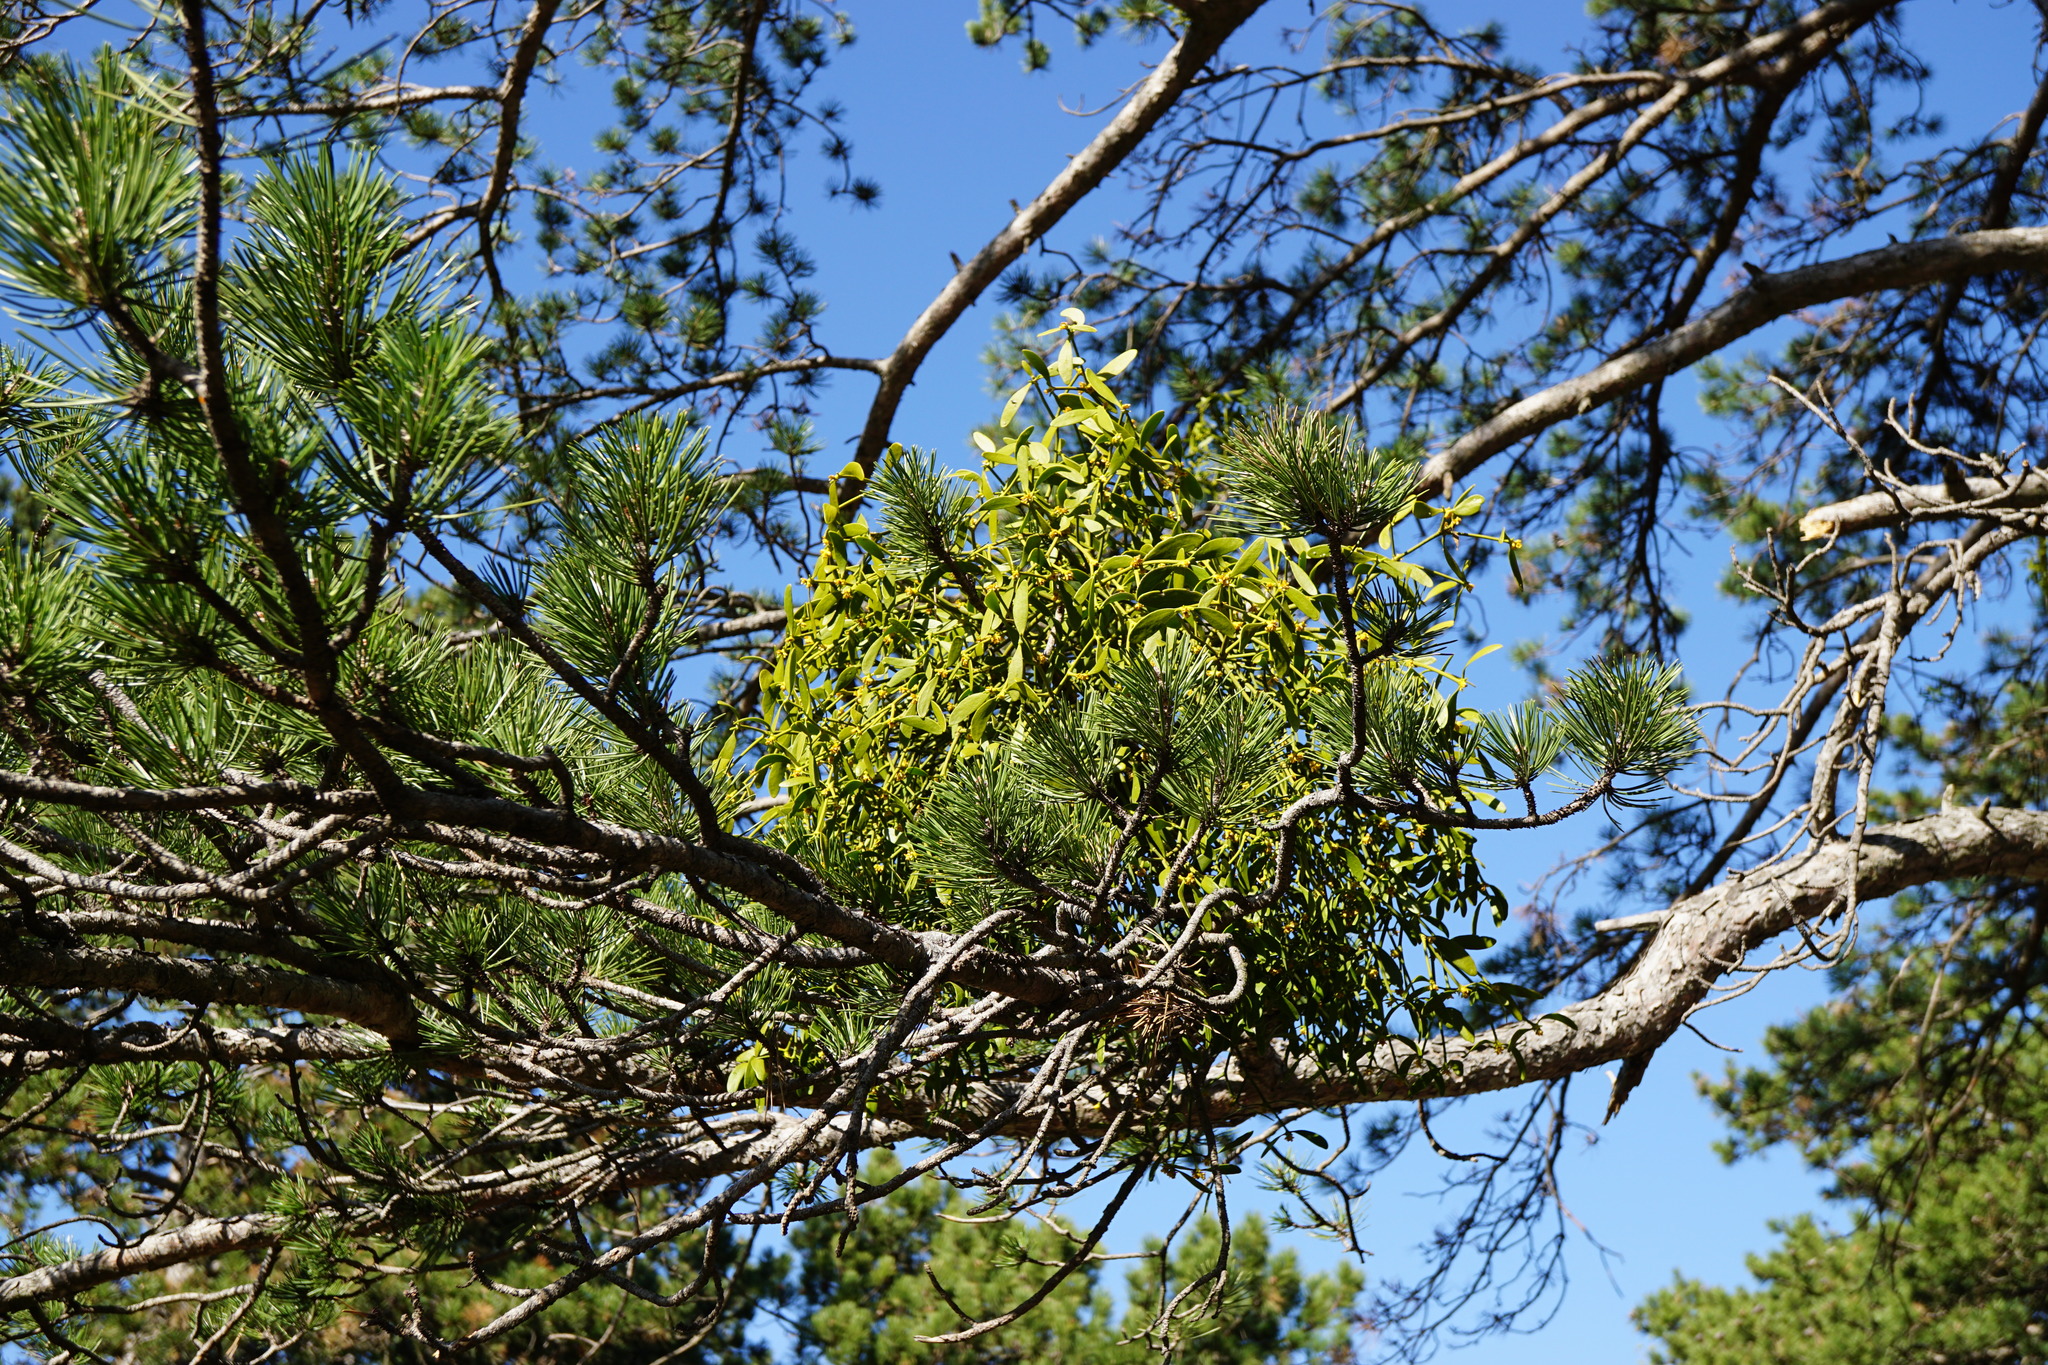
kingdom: Plantae
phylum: Tracheophyta
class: Magnoliopsida
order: Santalales
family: Viscaceae
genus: Viscum
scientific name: Viscum laxum
